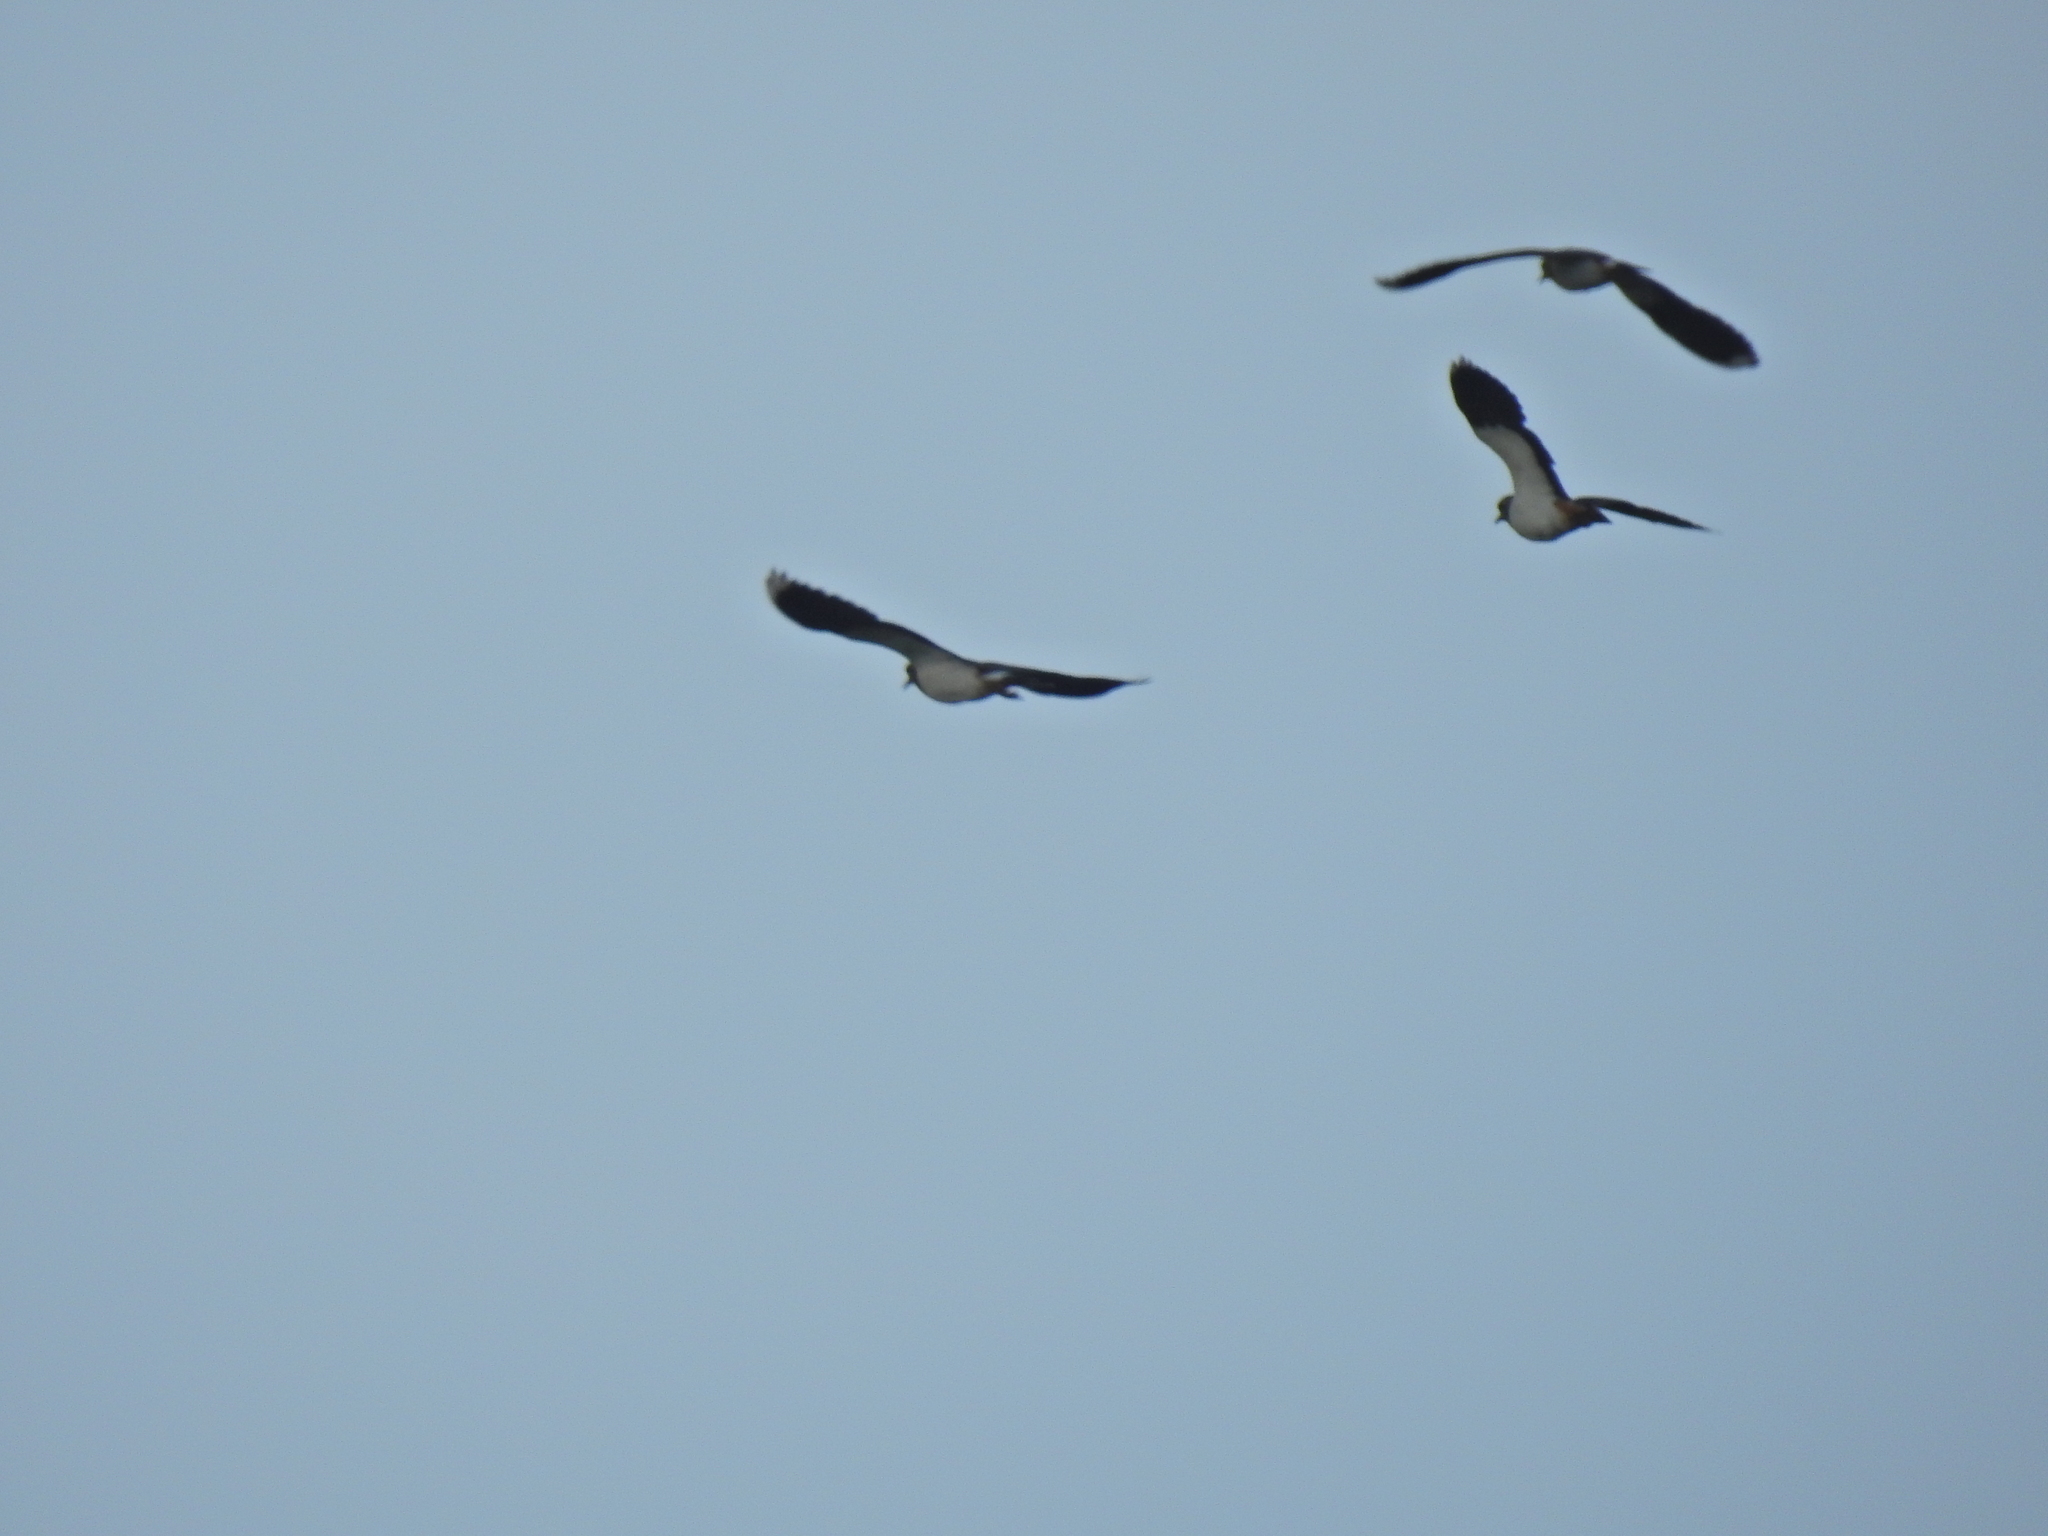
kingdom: Animalia
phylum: Chordata
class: Aves
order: Charadriiformes
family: Charadriidae
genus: Vanellus
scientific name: Vanellus vanellus
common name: Northern lapwing
